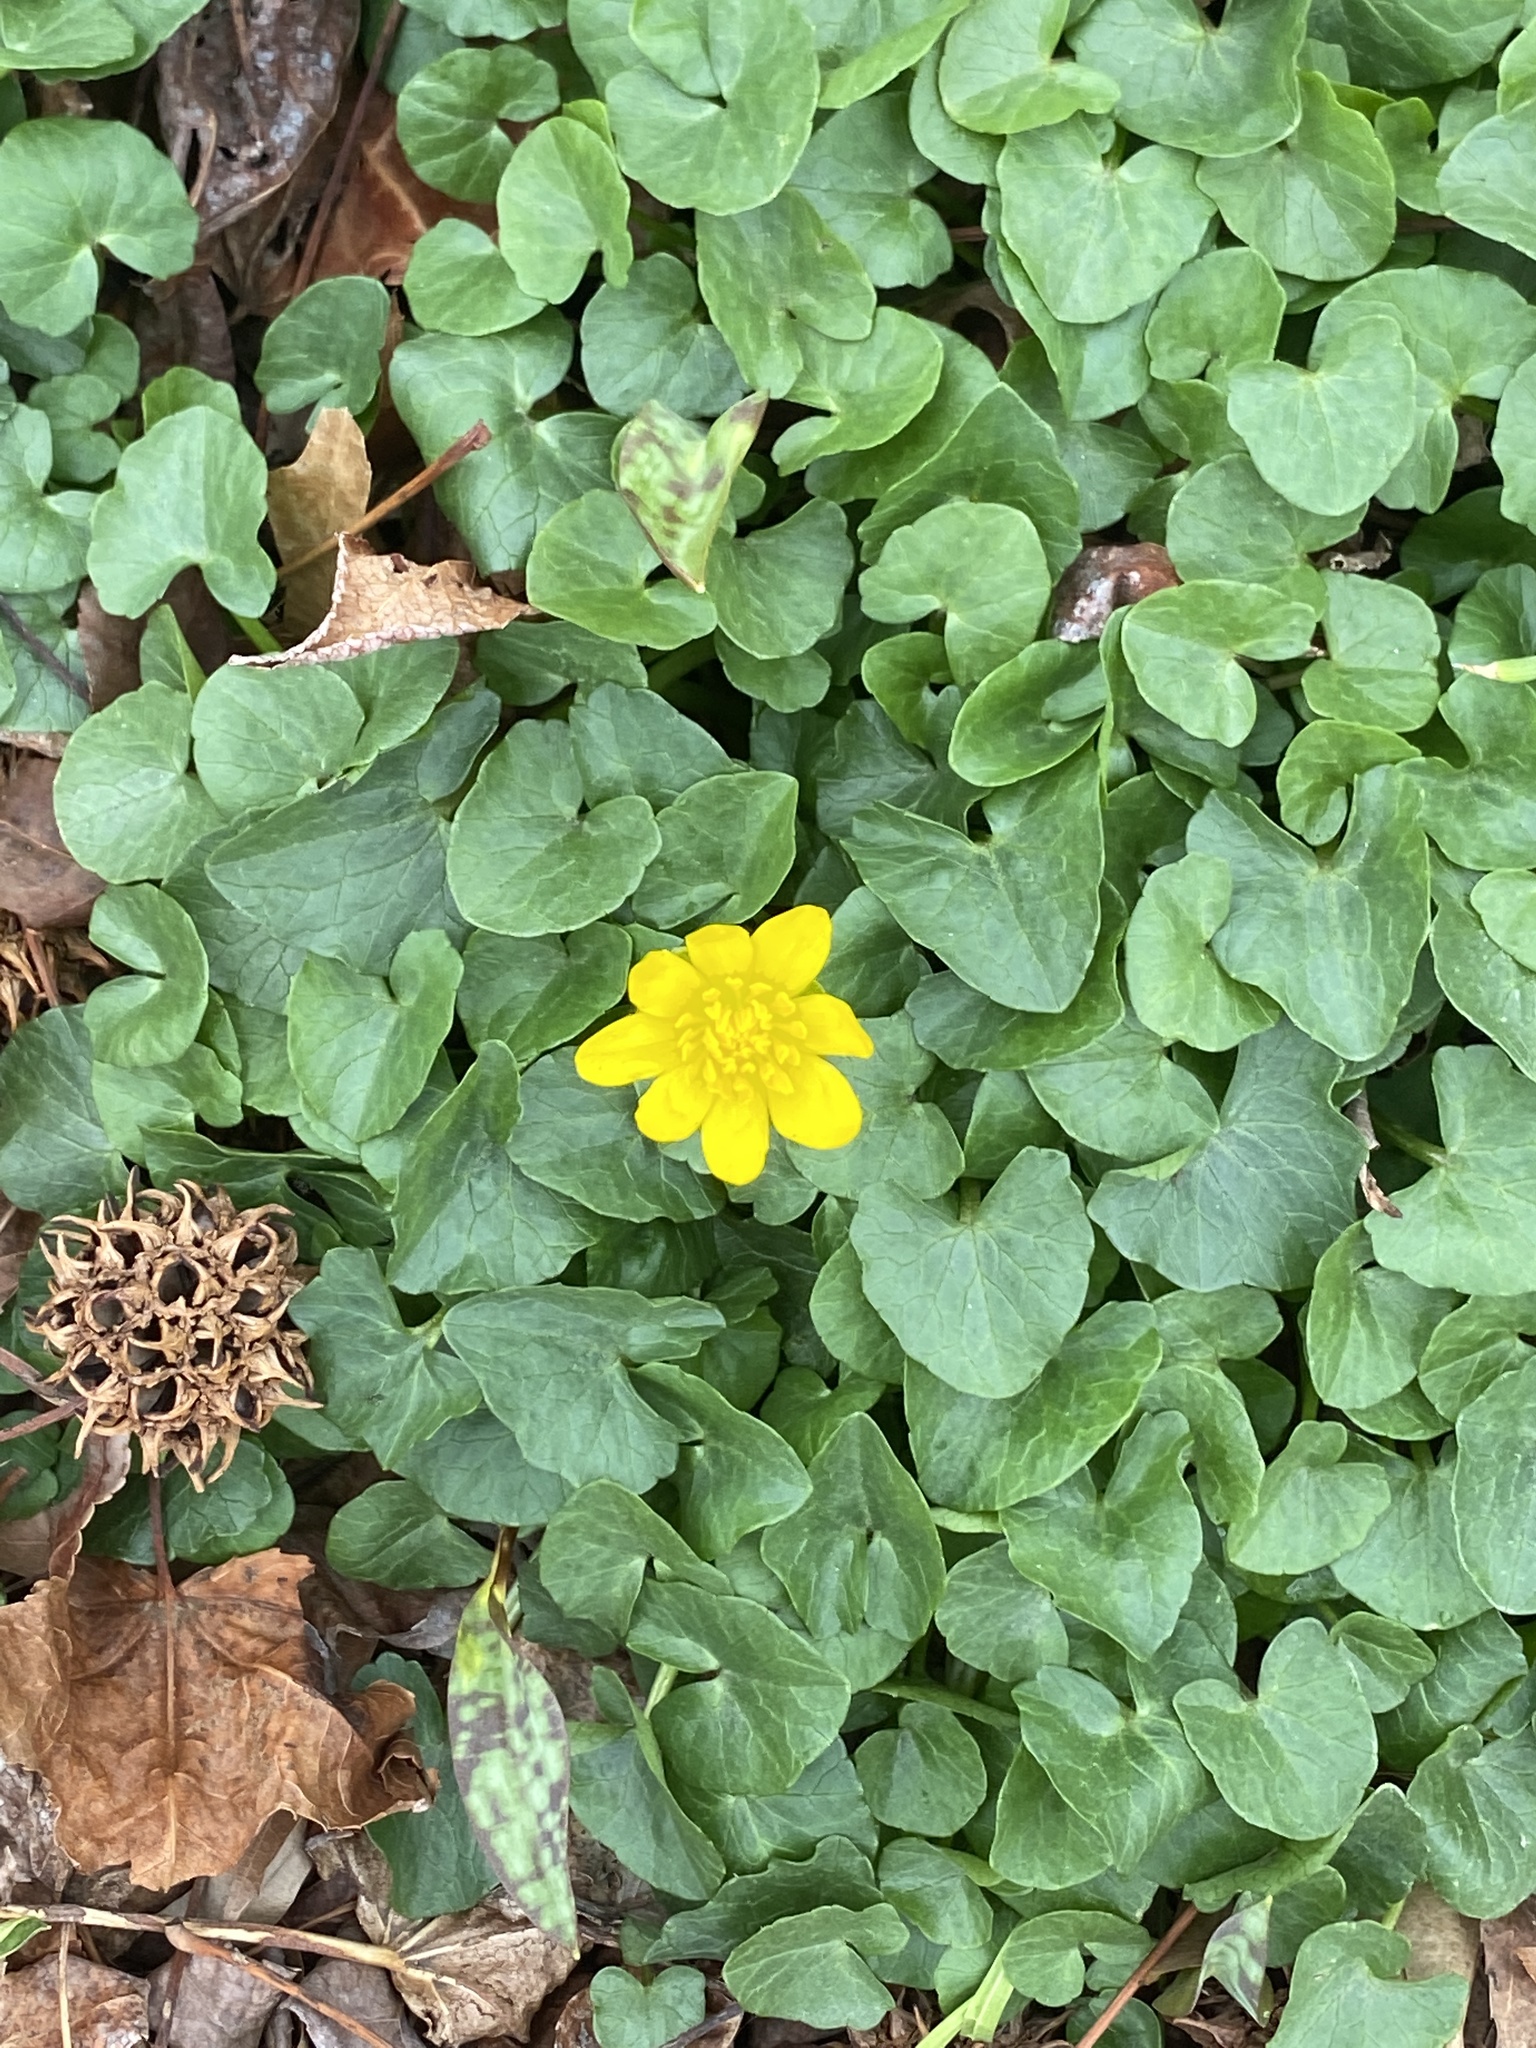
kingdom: Plantae
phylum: Tracheophyta
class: Magnoliopsida
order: Ranunculales
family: Ranunculaceae
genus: Ficaria
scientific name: Ficaria verna
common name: Lesser celandine
